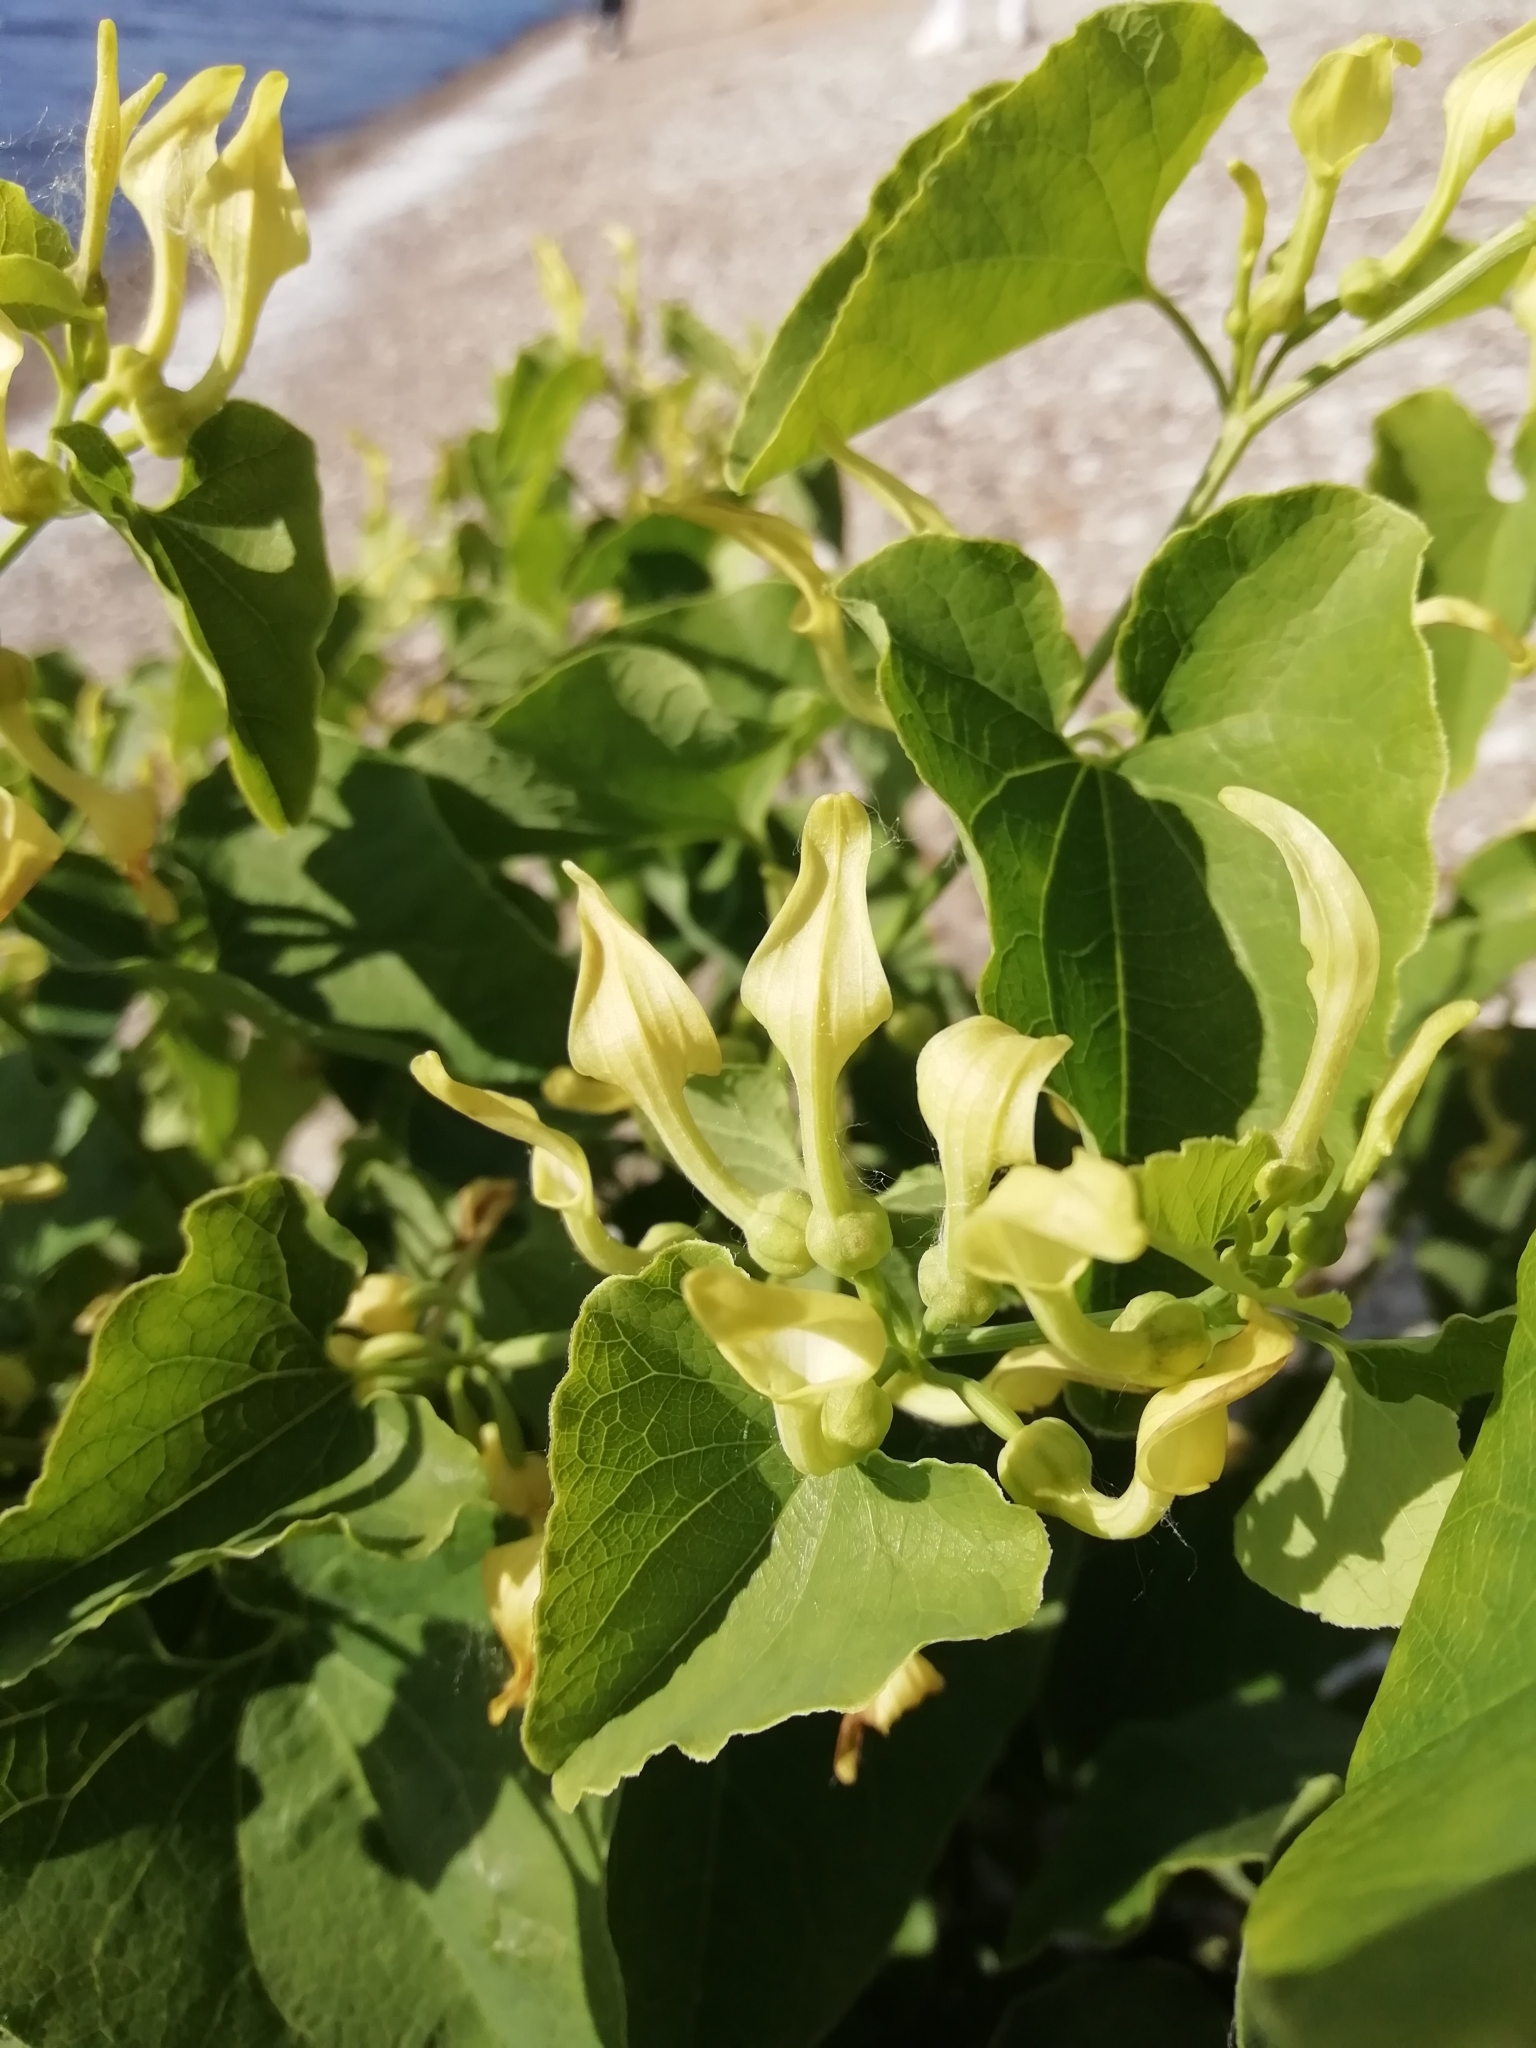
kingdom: Plantae
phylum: Tracheophyta
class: Magnoliopsida
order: Piperales
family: Aristolochiaceae
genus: Aristolochia
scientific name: Aristolochia clematitis
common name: Birthwort
